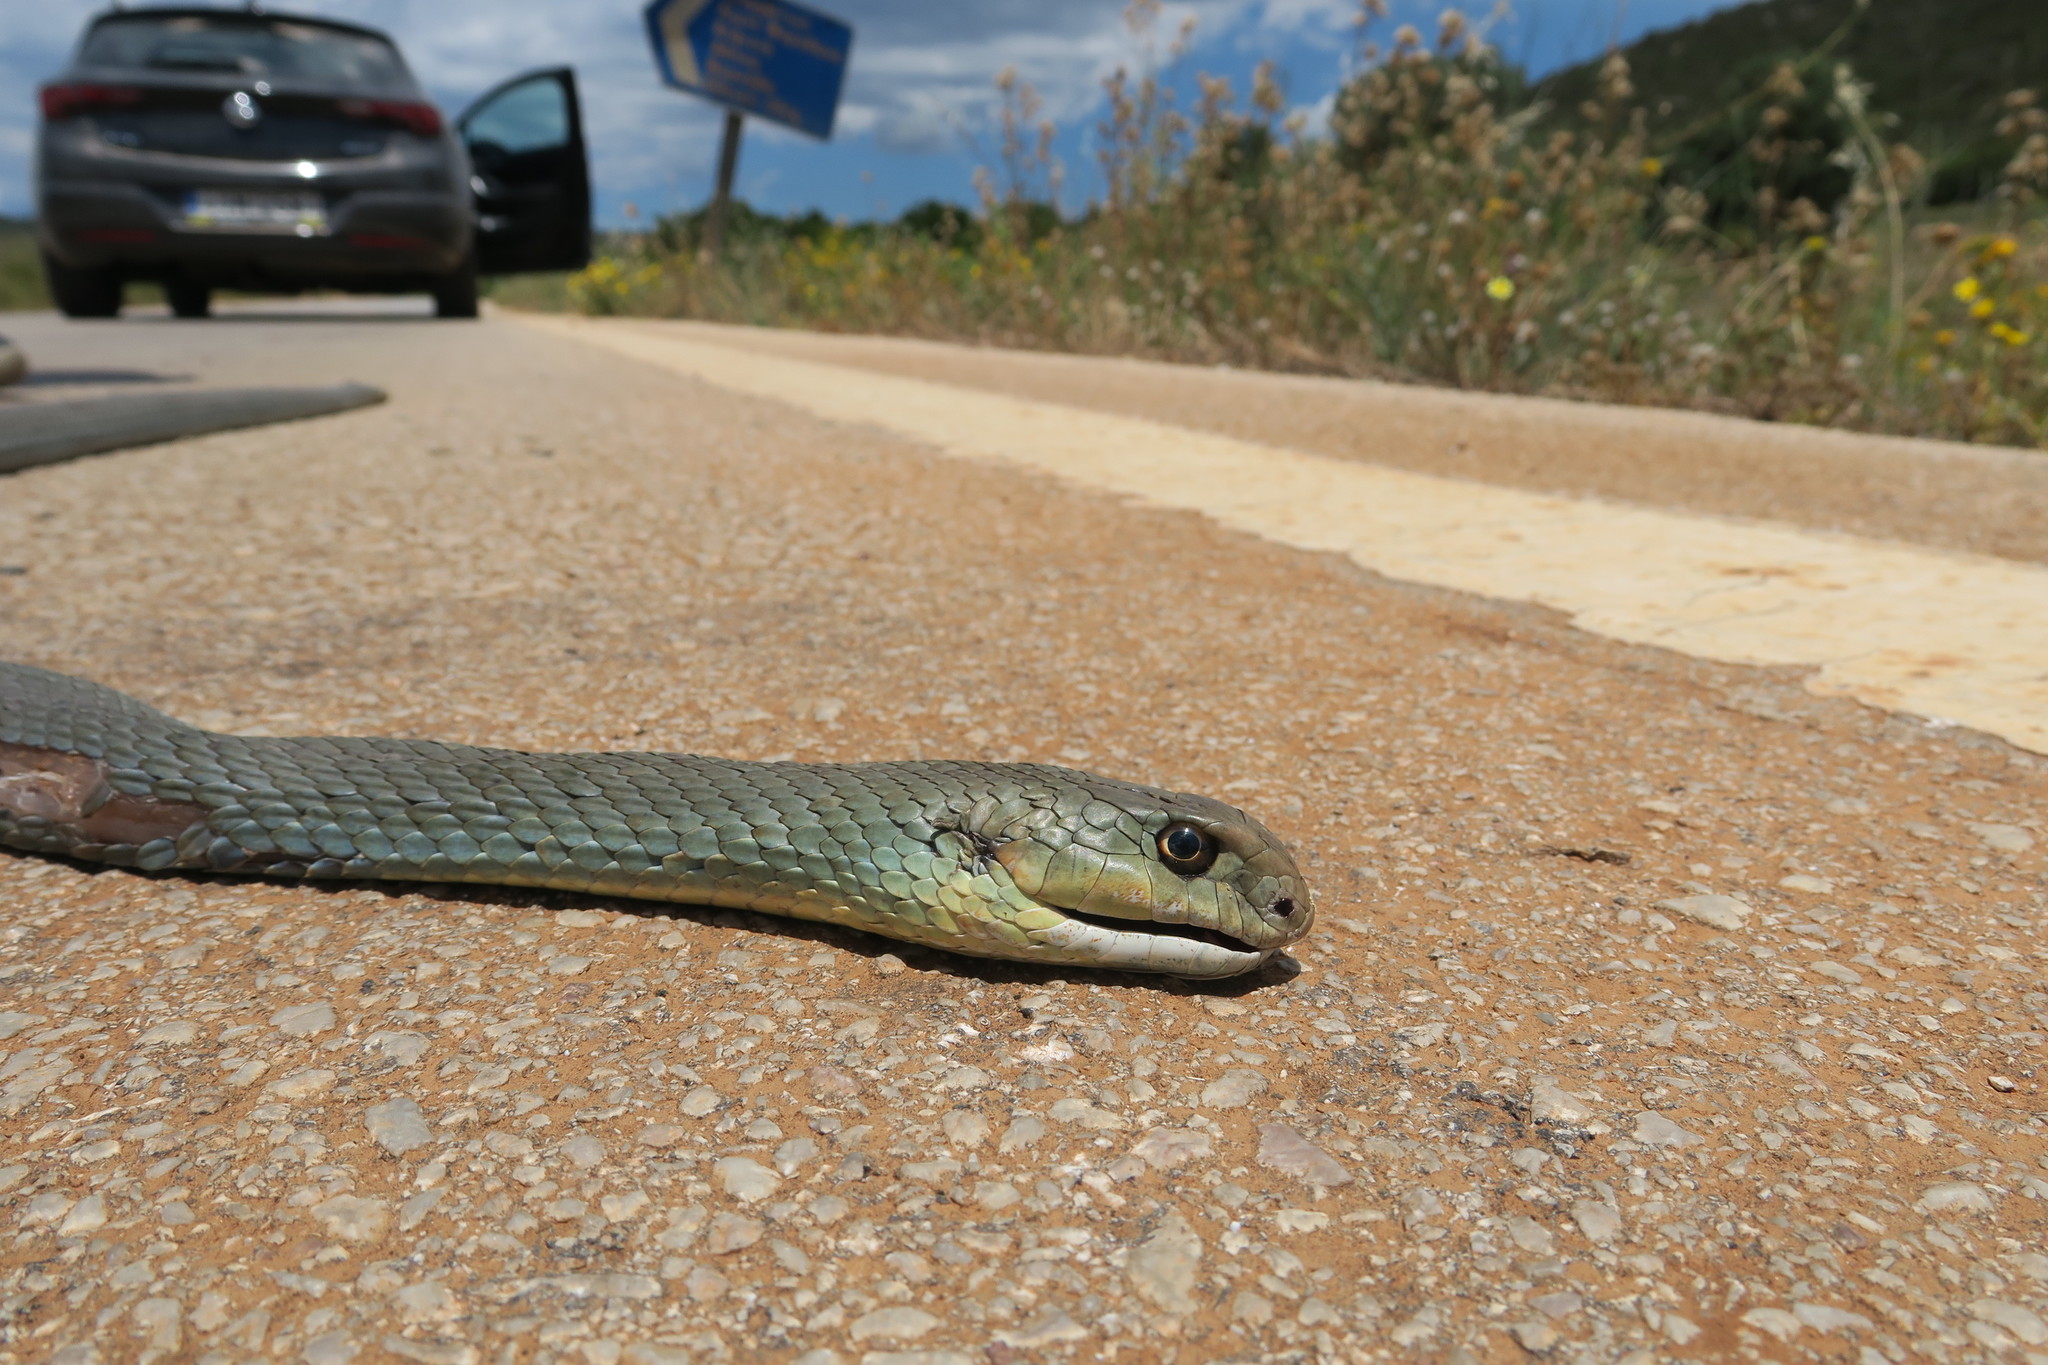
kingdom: Animalia
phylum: Chordata
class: Squamata
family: Psammophiidae
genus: Malpolon
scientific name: Malpolon insignitus
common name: Eastern montpellier snake
